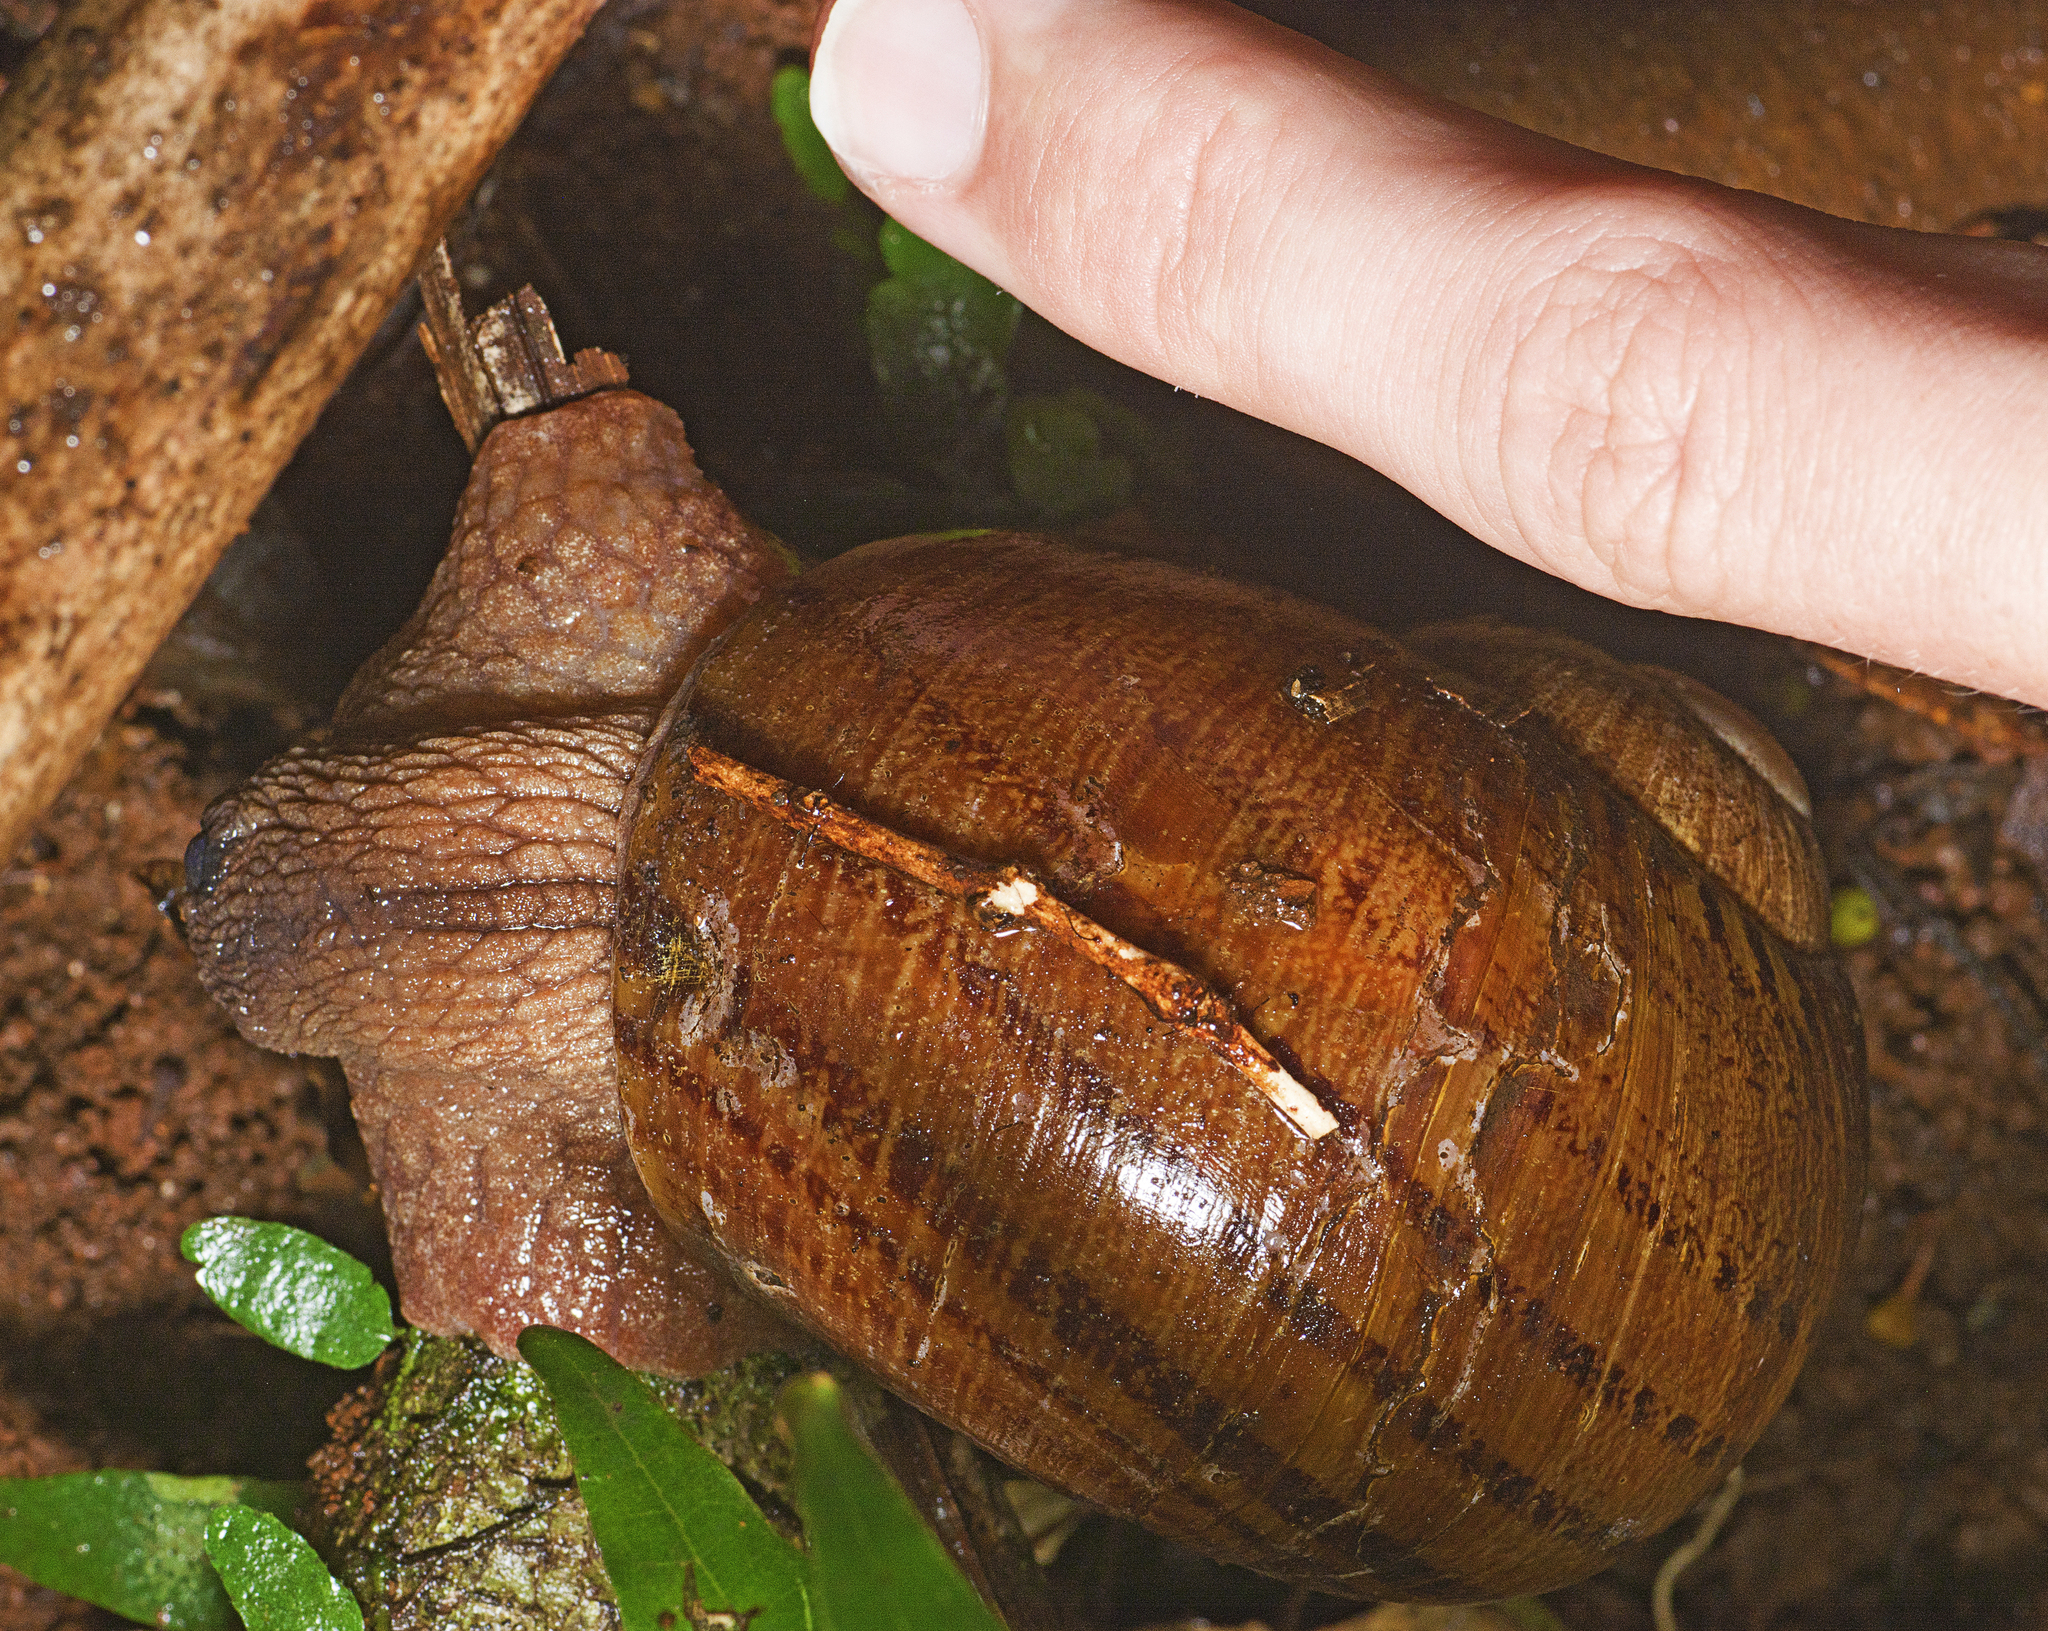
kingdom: Animalia
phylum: Mollusca
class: Gastropoda
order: Stylommatophora
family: Caryodidae
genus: Hedleyella
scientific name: Hedleyella falconeri
